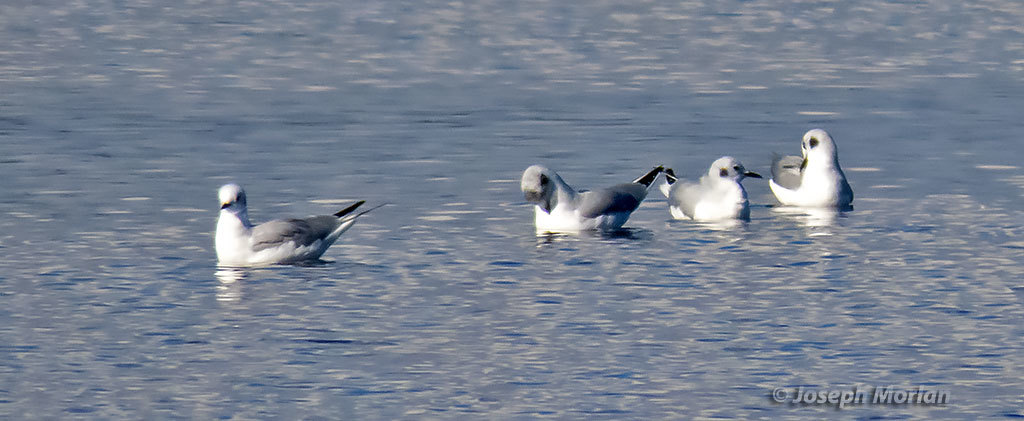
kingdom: Animalia
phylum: Chordata
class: Aves
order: Charadriiformes
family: Laridae
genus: Chroicocephalus
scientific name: Chroicocephalus philadelphia
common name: Bonaparte's gull
